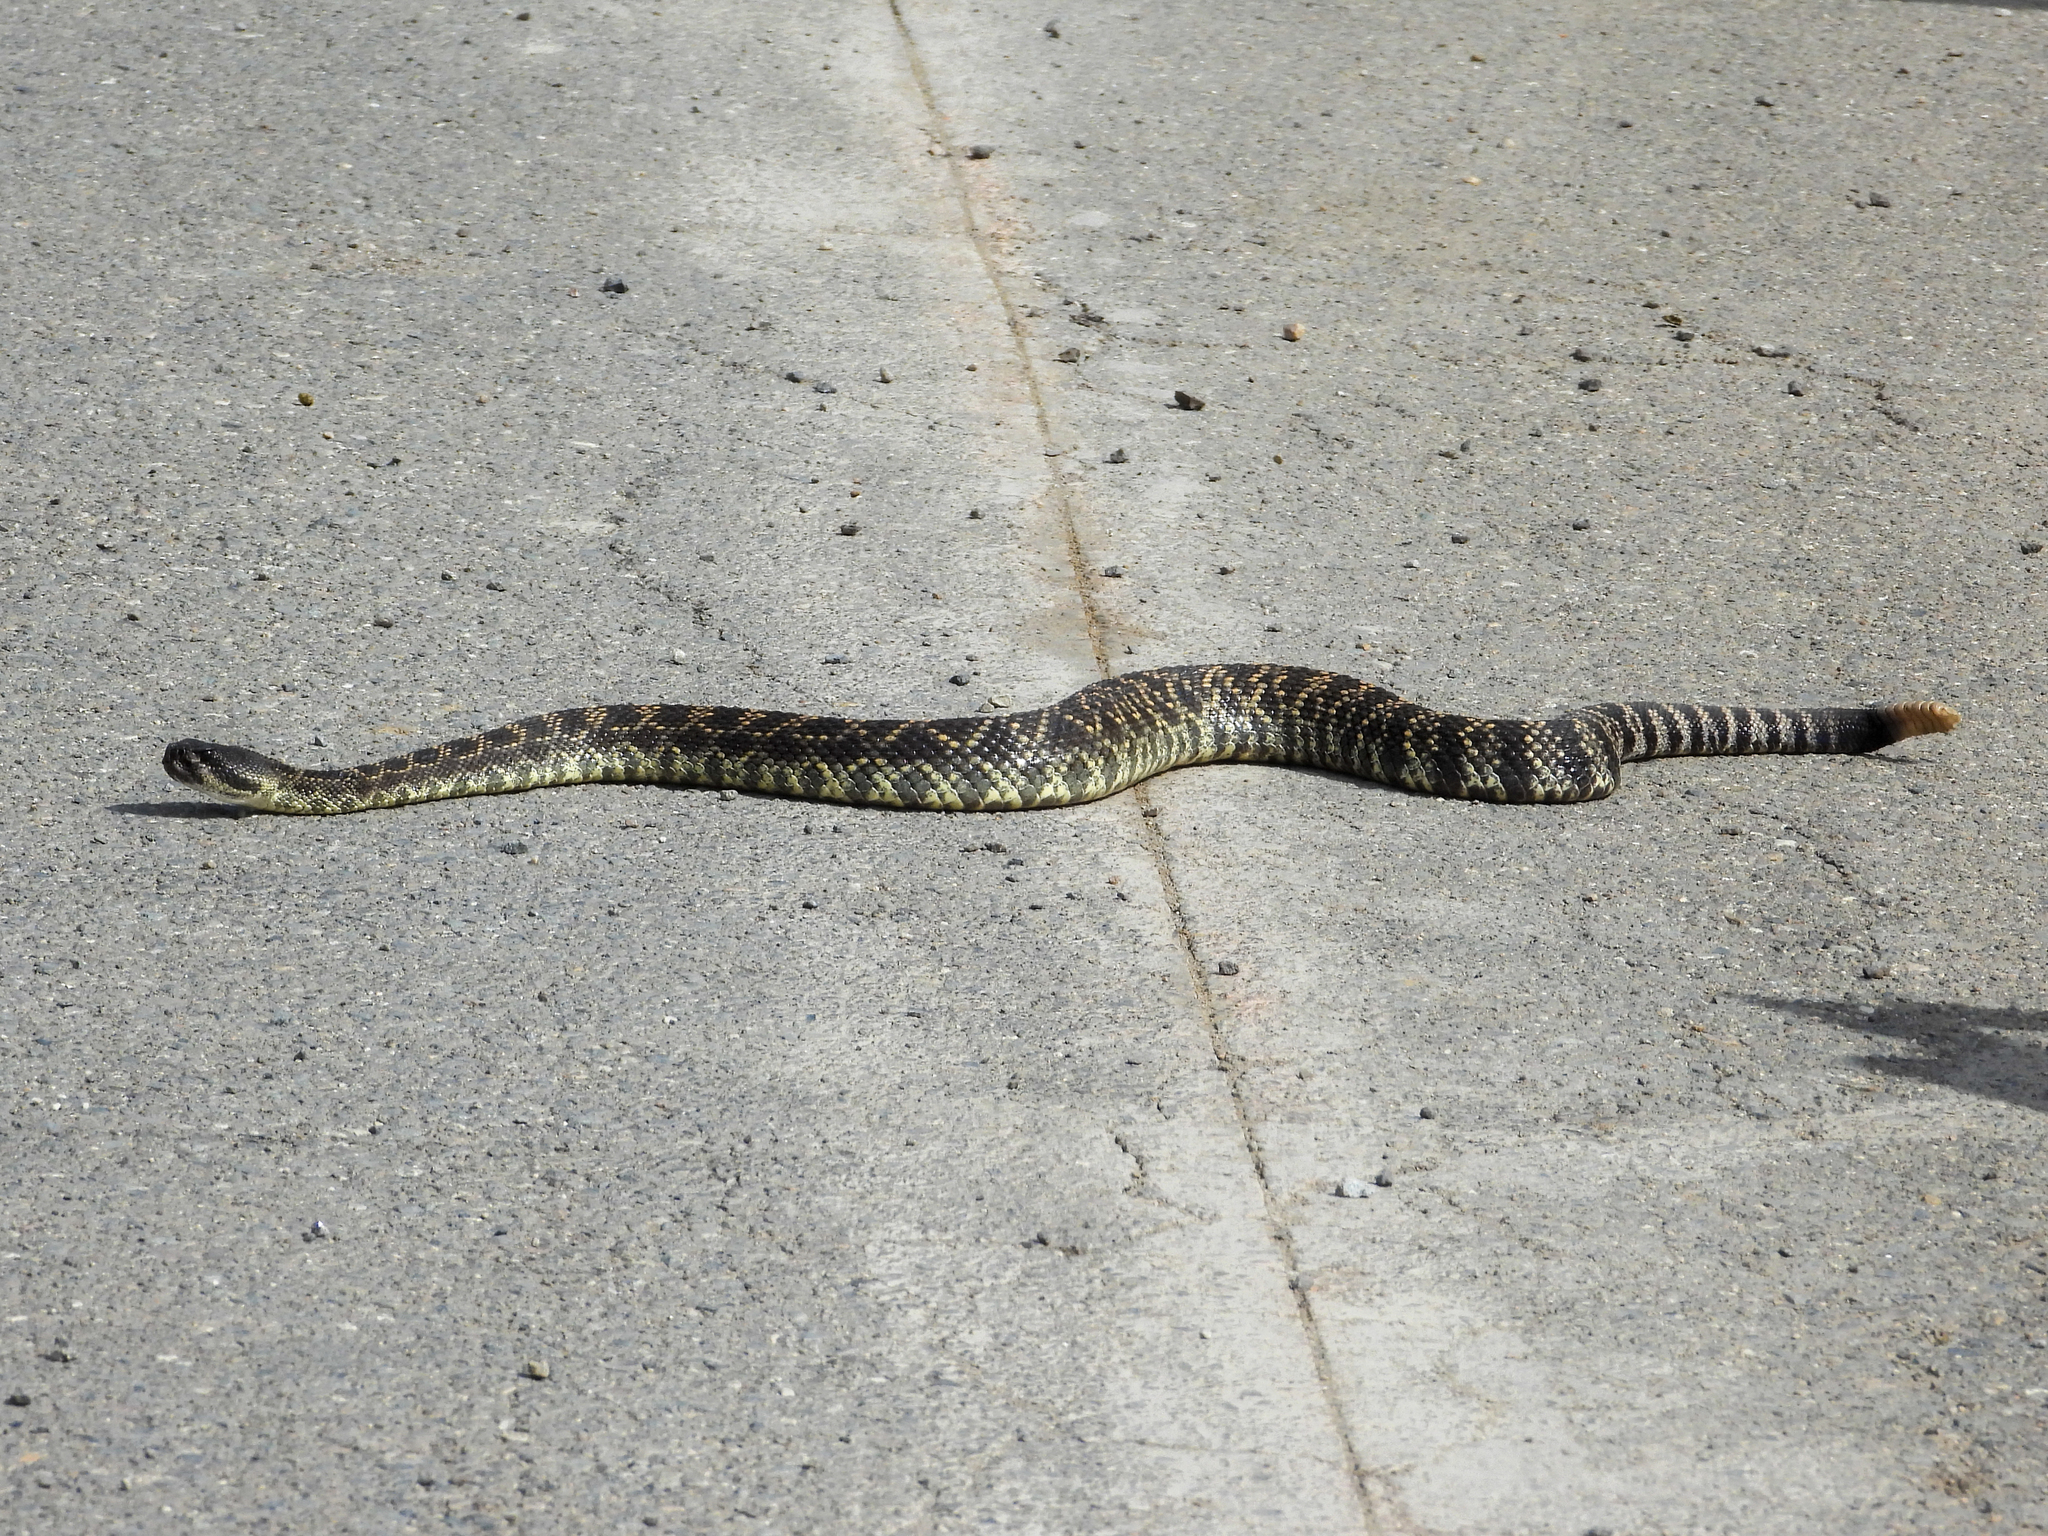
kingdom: Animalia
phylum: Chordata
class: Squamata
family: Viperidae
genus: Crotalus
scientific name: Crotalus oreganus
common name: Abyssus
